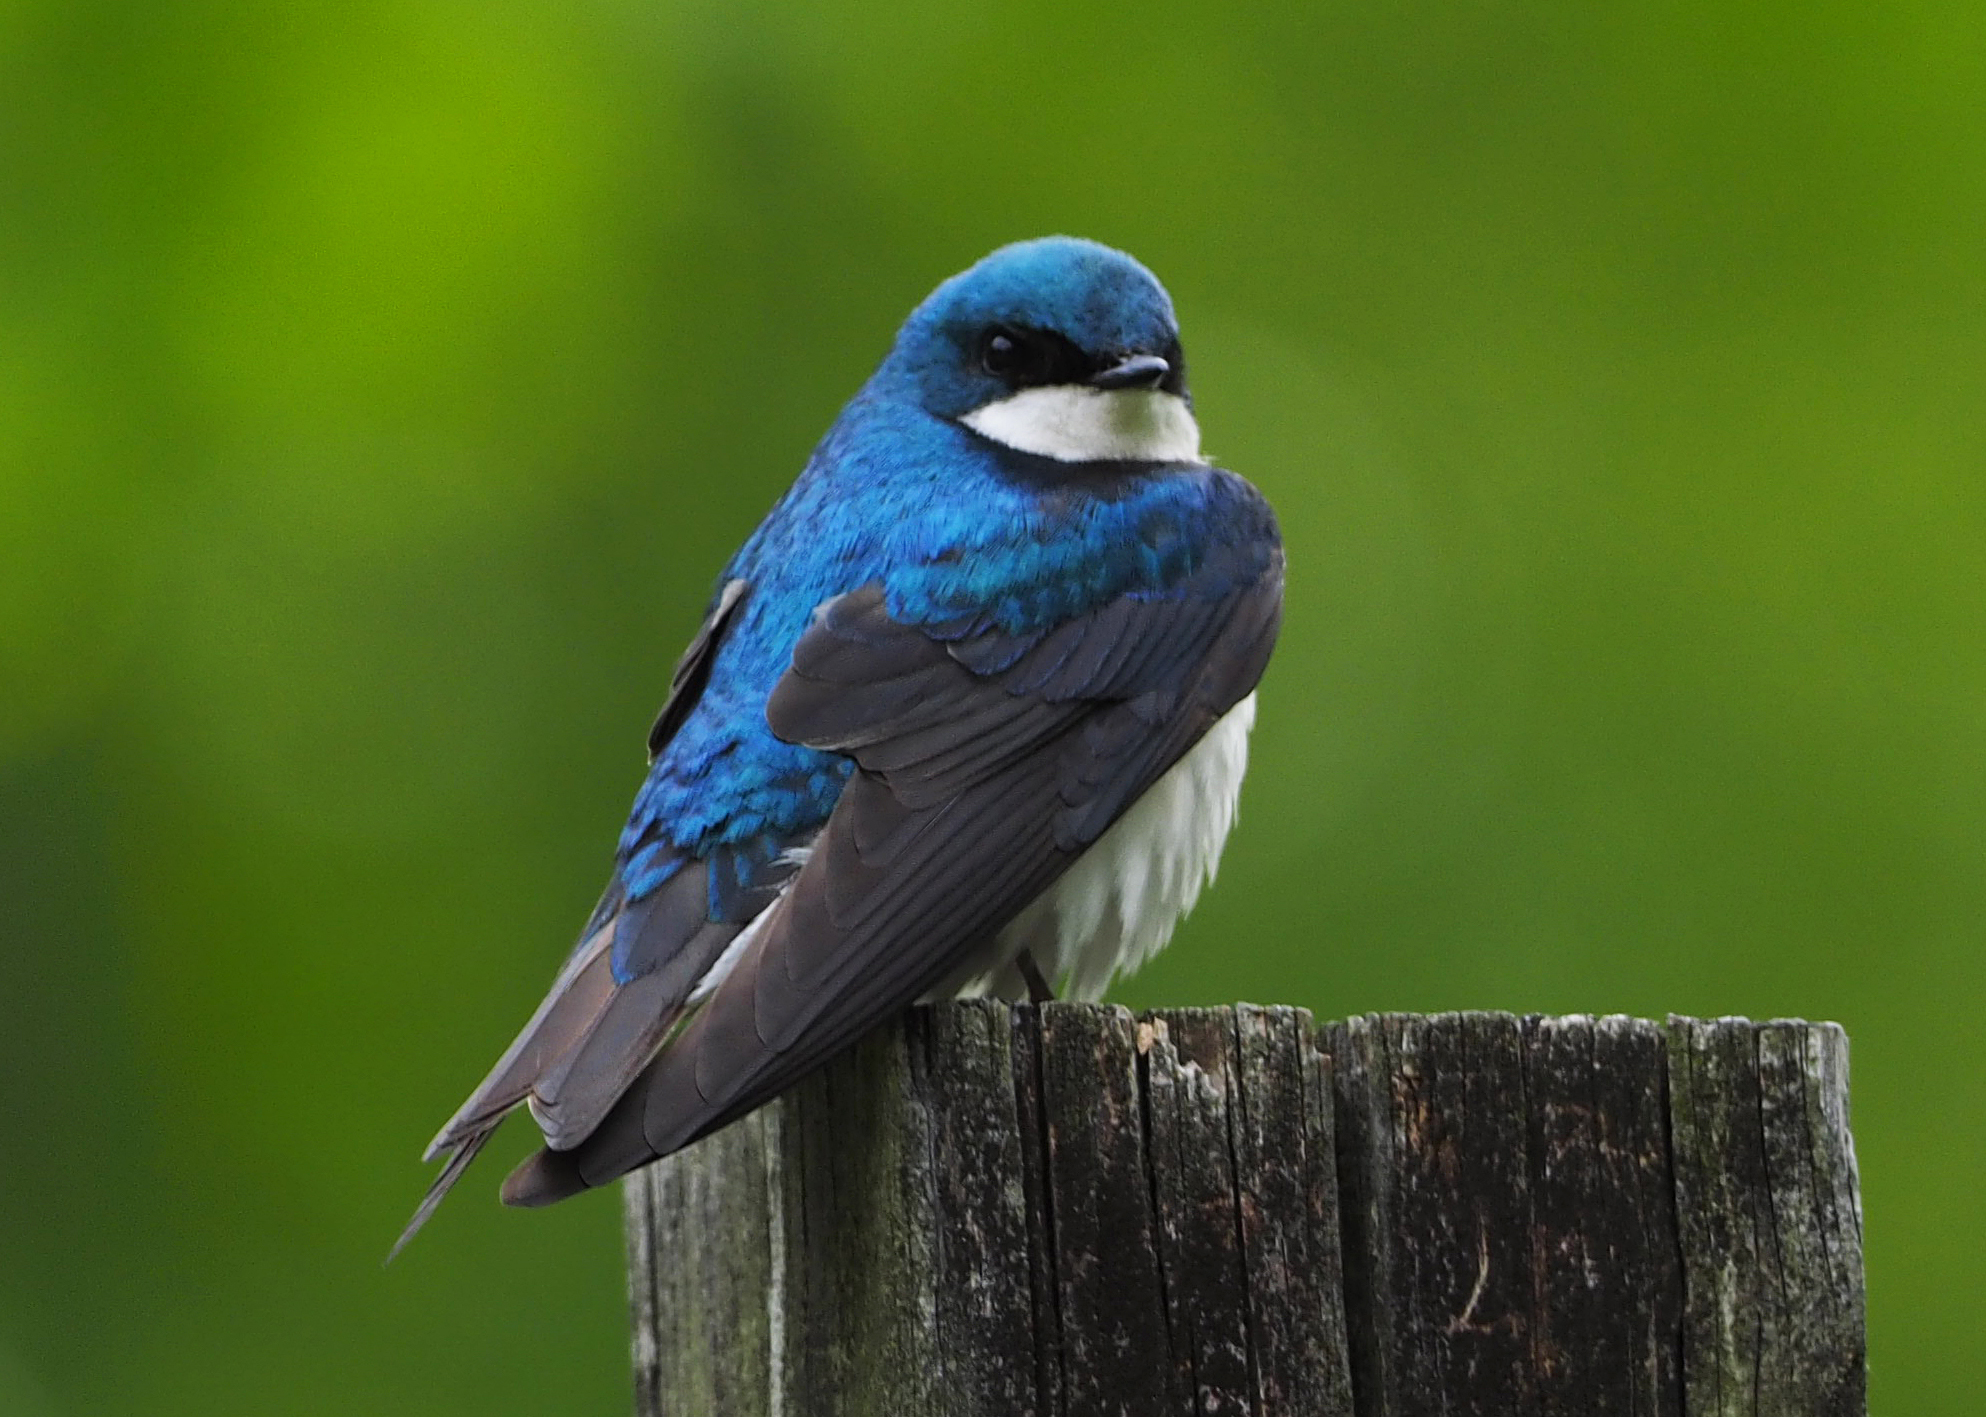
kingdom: Animalia
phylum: Chordata
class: Aves
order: Passeriformes
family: Hirundinidae
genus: Tachycineta
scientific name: Tachycineta bicolor
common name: Tree swallow
